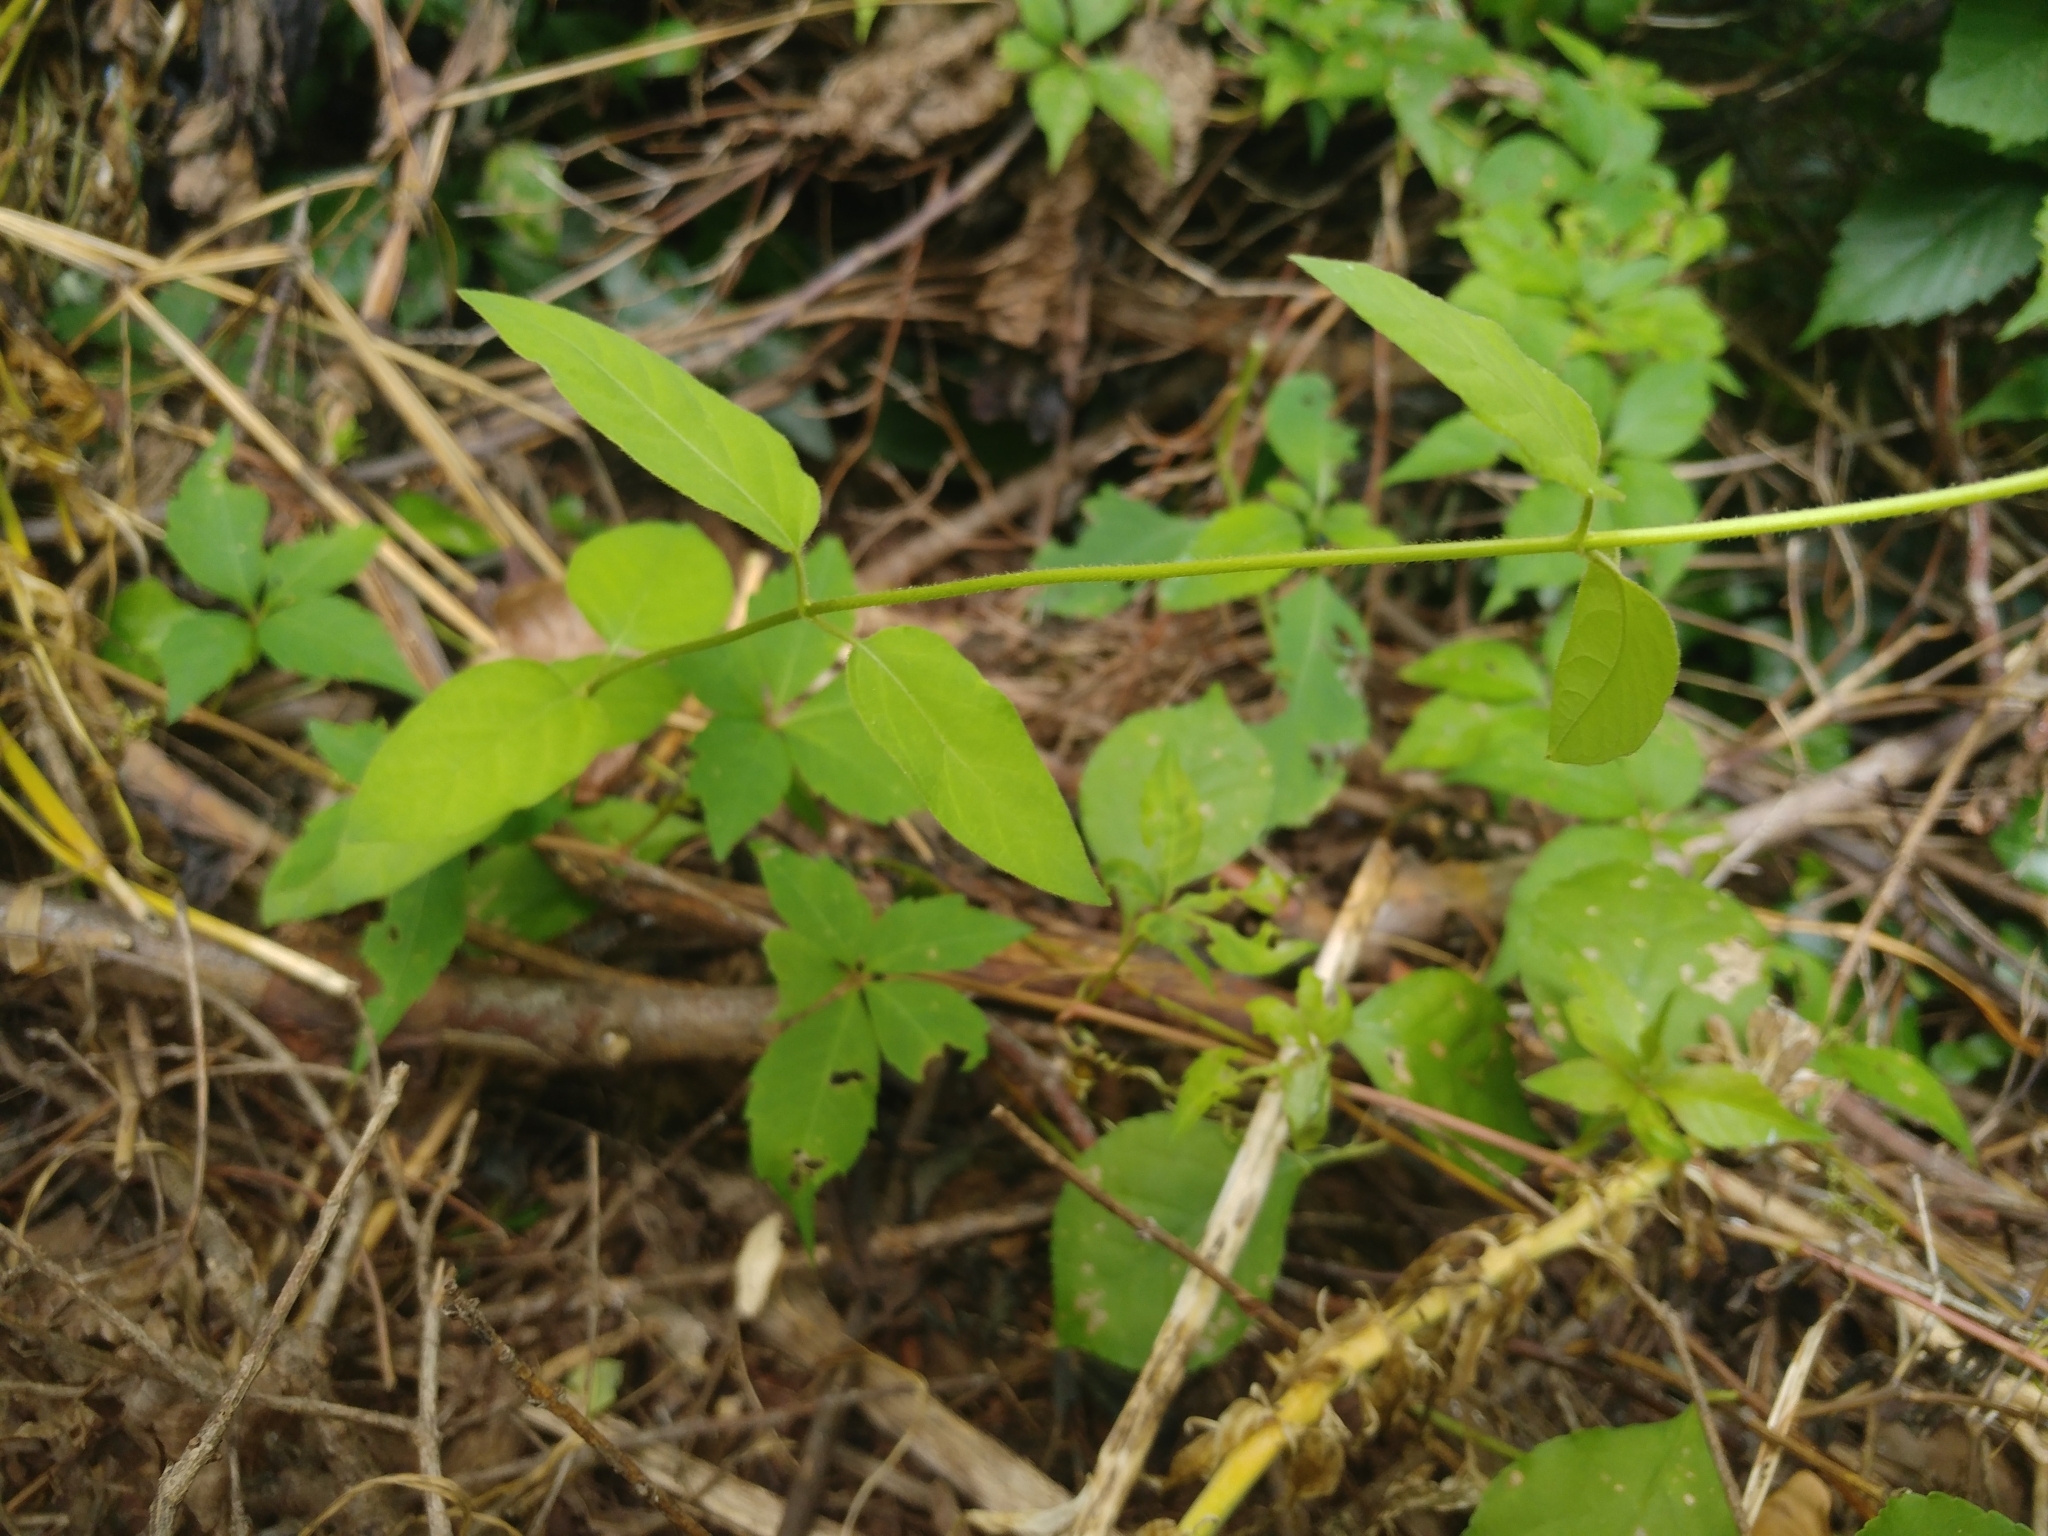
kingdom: Plantae
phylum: Tracheophyta
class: Magnoliopsida
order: Dipsacales
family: Caprifoliaceae
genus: Lonicera
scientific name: Lonicera japonica
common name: Japanese honeysuckle
